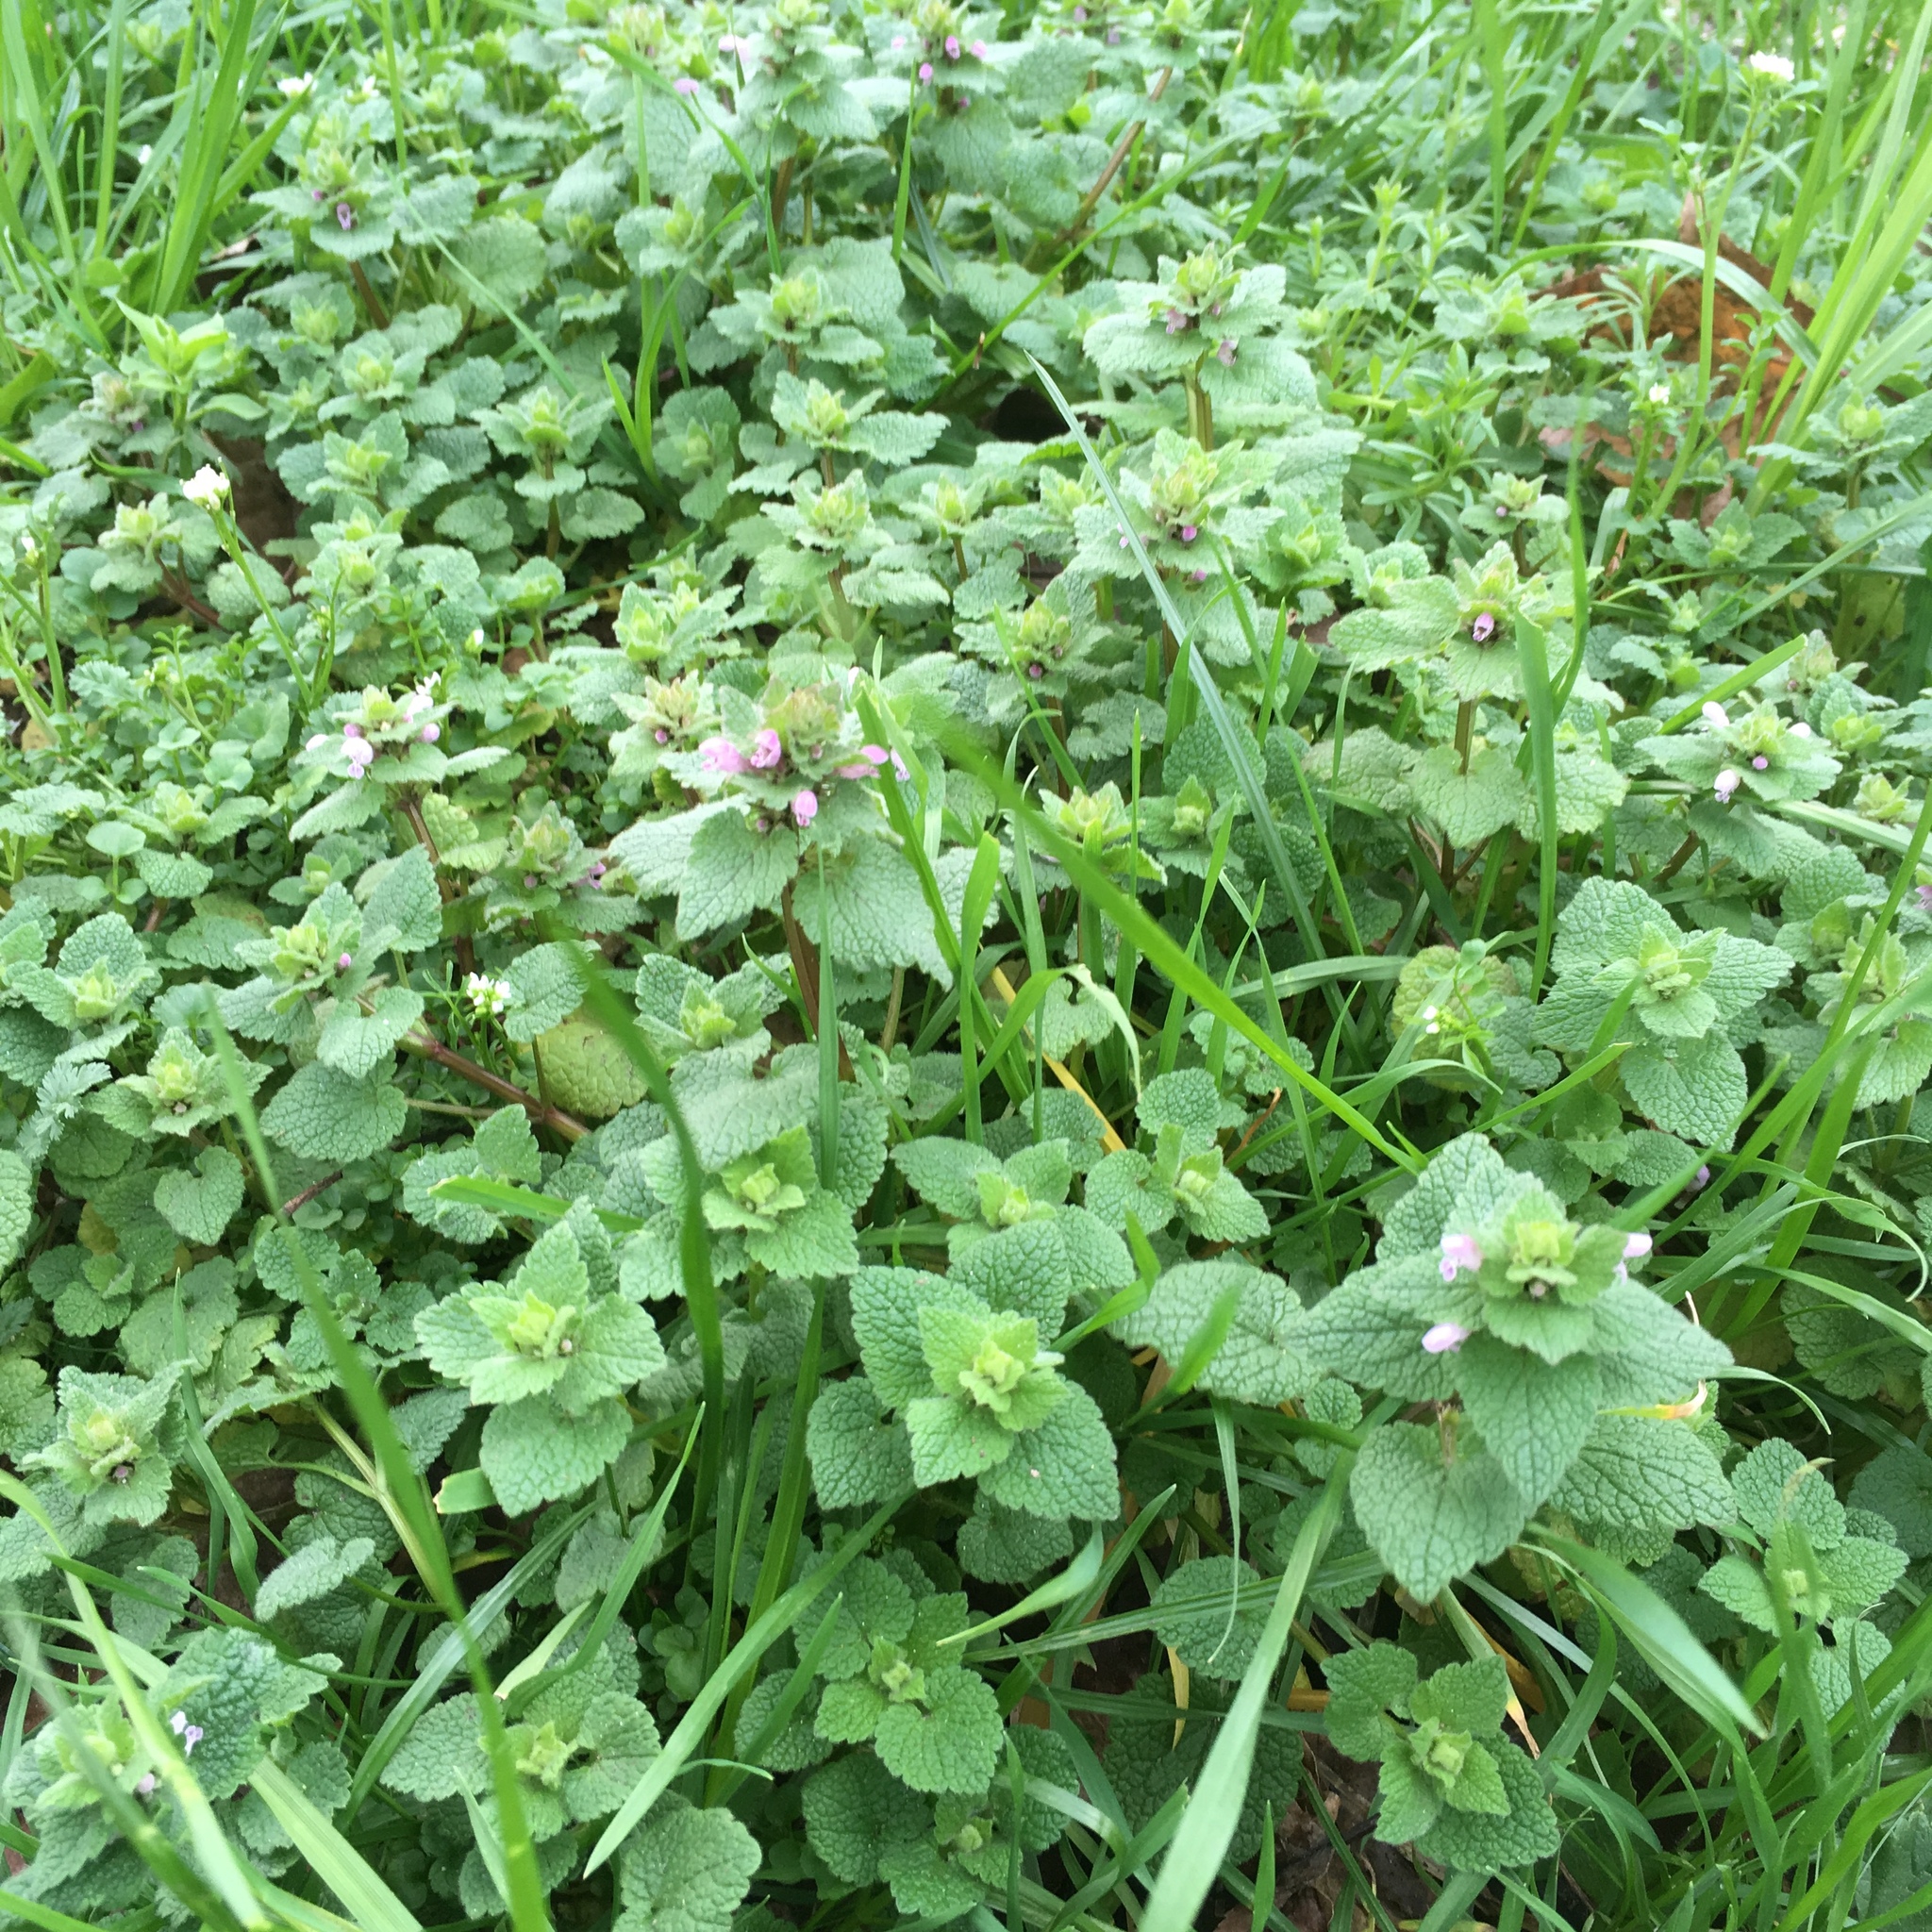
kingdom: Plantae
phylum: Tracheophyta
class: Magnoliopsida
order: Lamiales
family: Lamiaceae
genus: Lamium
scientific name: Lamium purpureum
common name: Red dead-nettle
